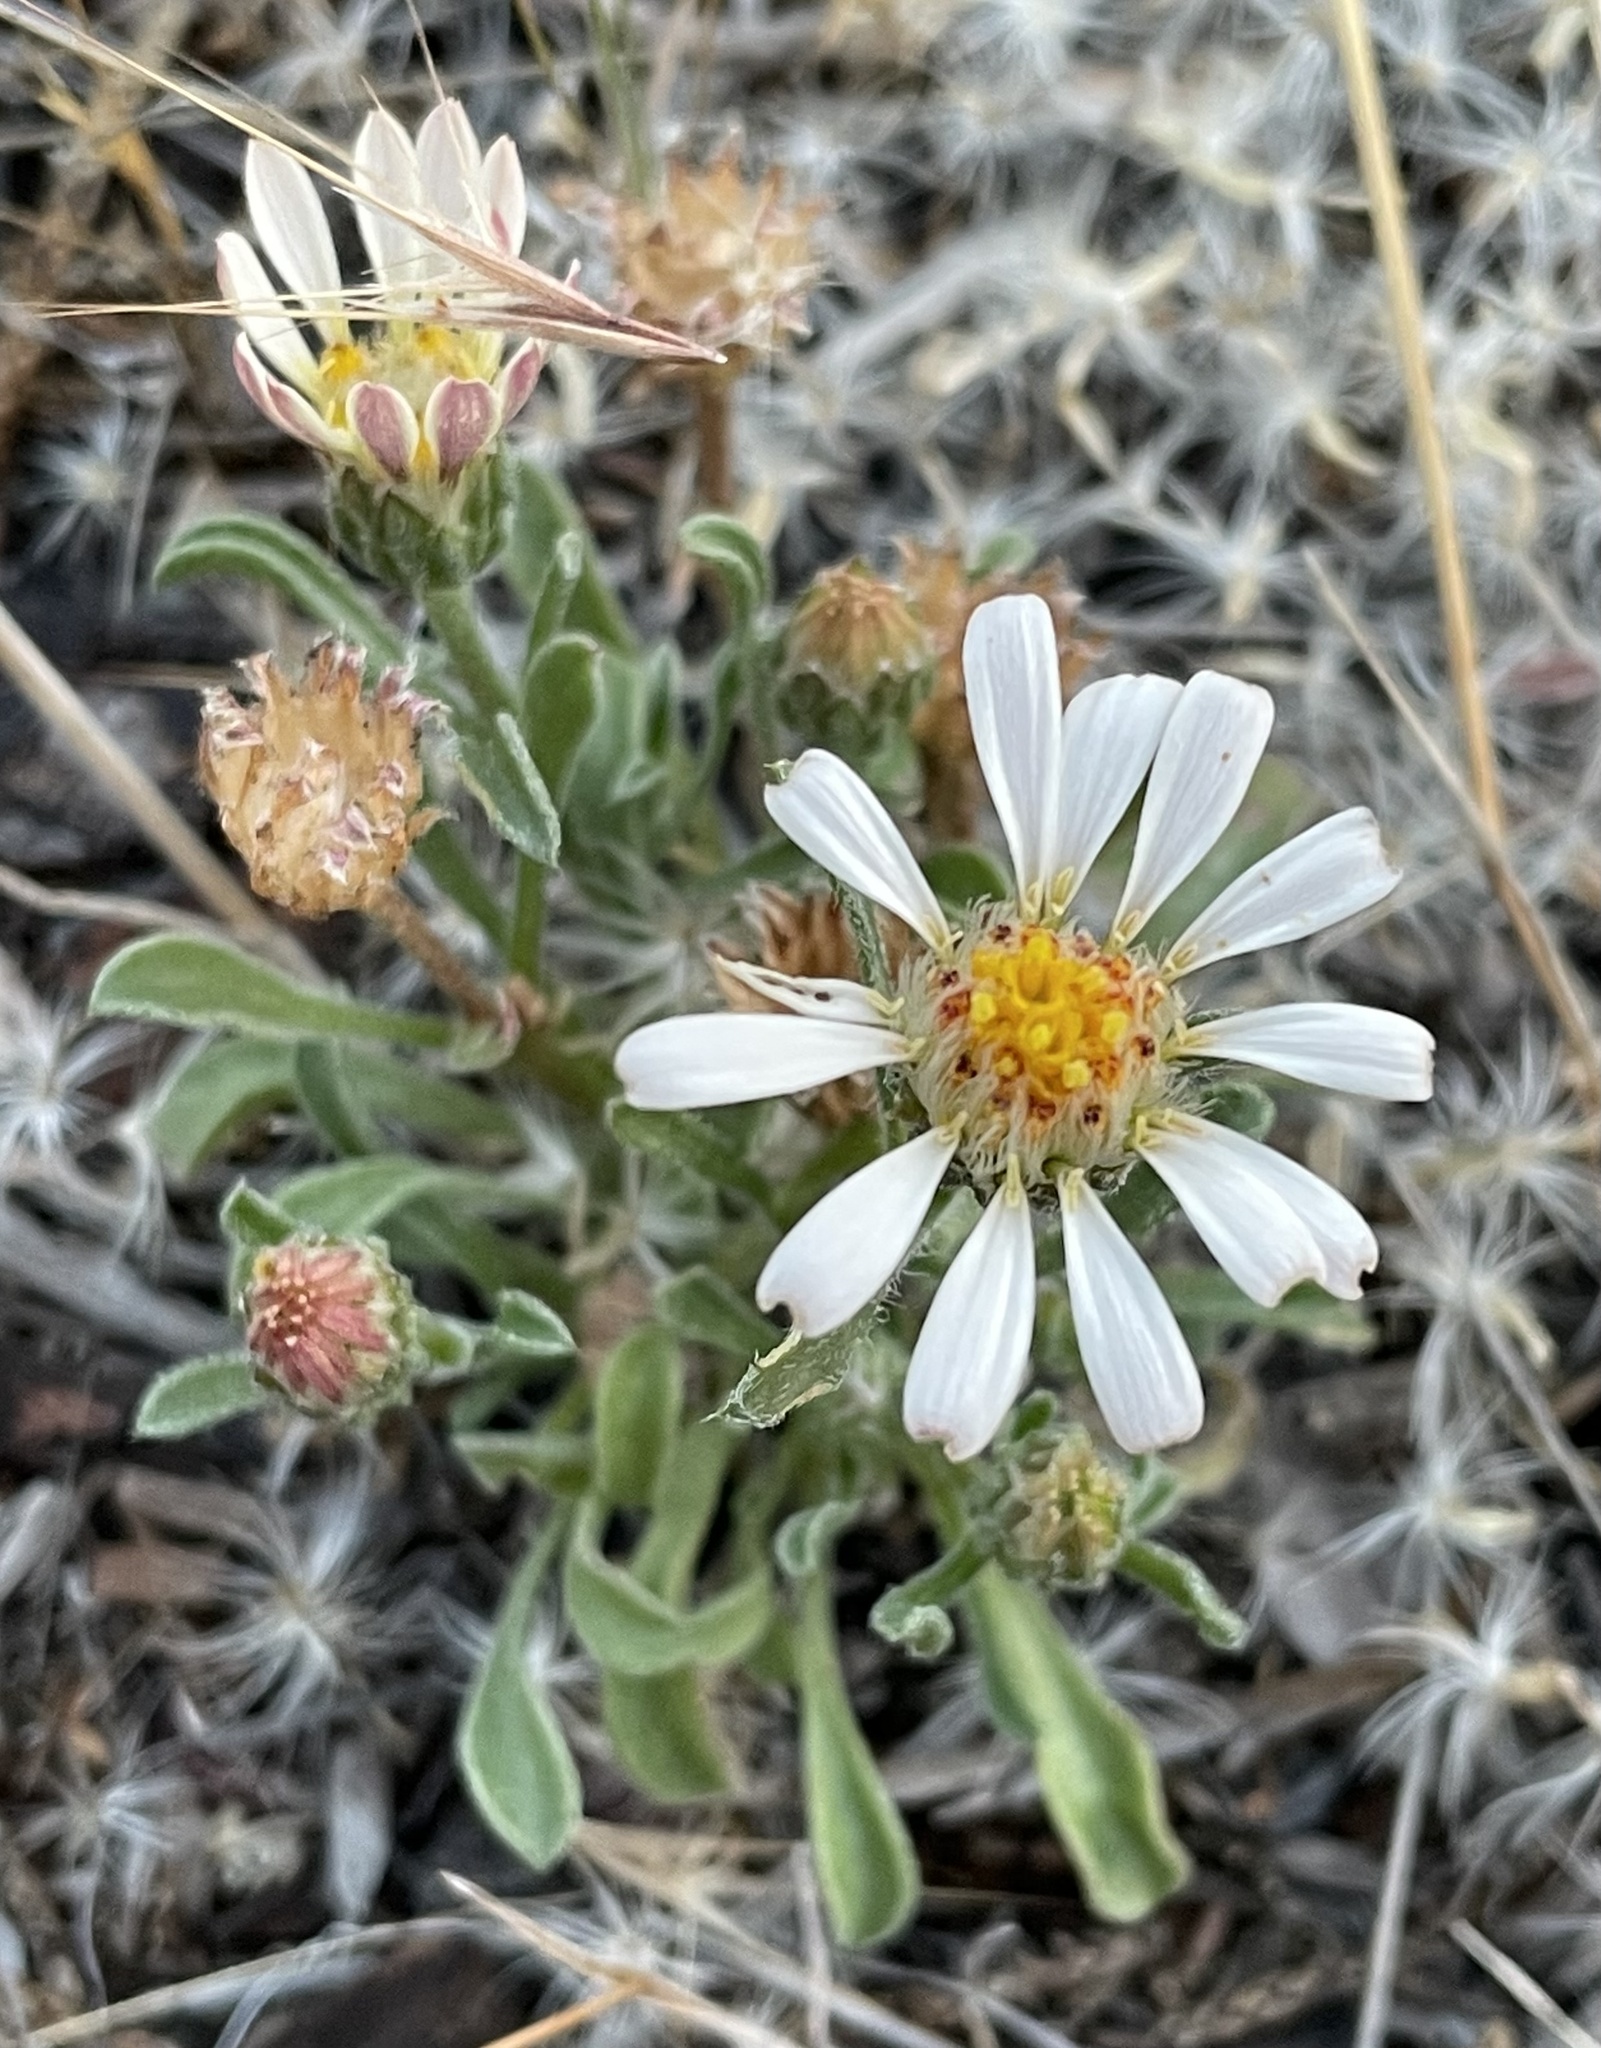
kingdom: Plantae
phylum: Tracheophyta
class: Magnoliopsida
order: Asterales
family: Asteraceae
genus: Townsendia
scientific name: Townsendia florifera
